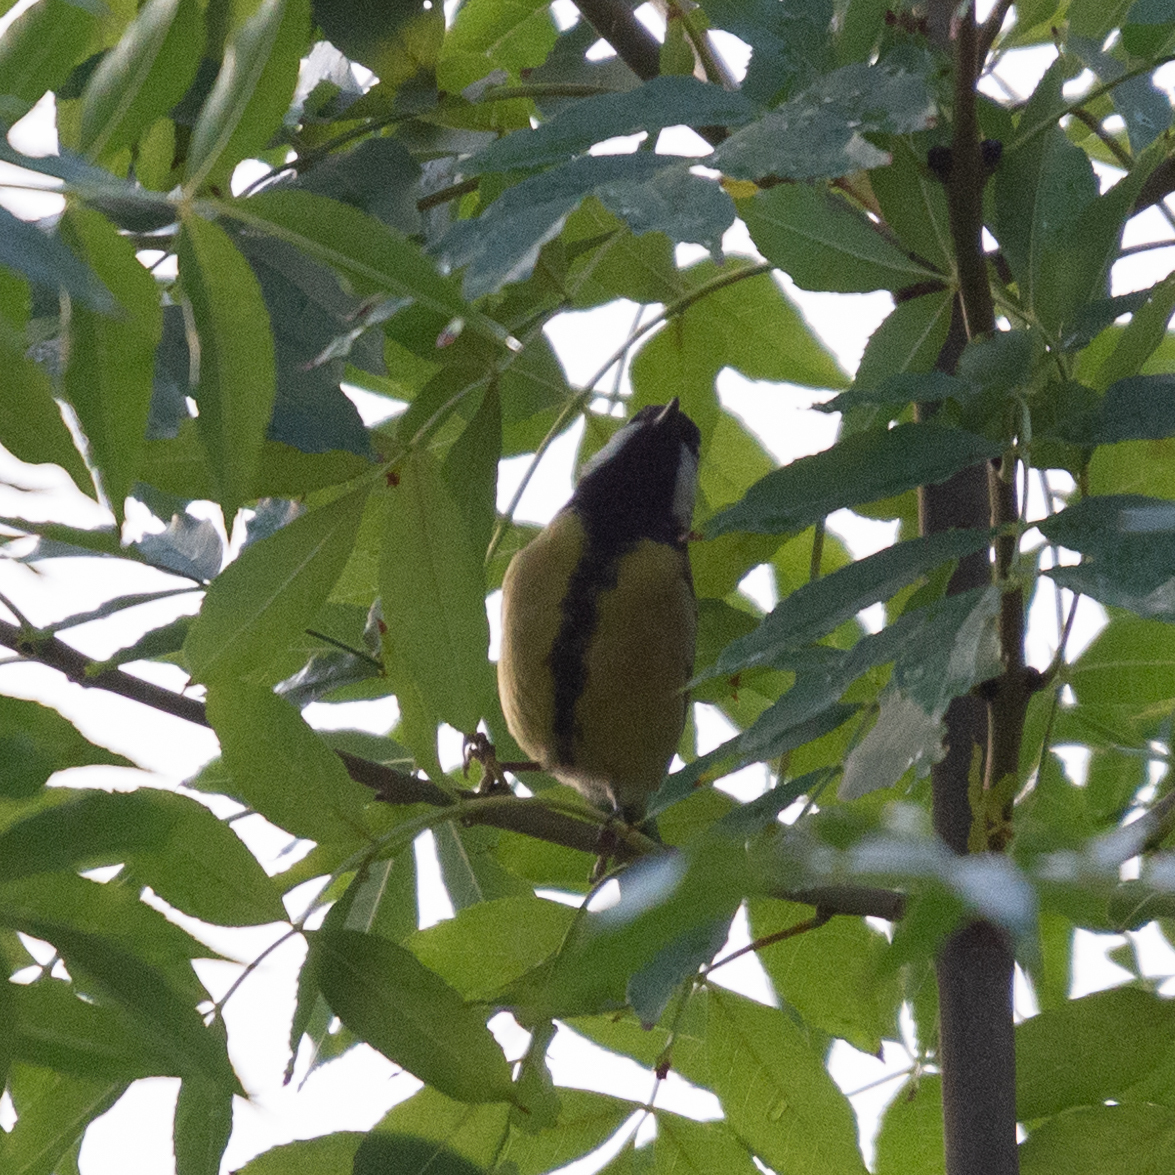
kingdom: Animalia
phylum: Chordata
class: Aves
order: Passeriformes
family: Paridae
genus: Parus
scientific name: Parus major
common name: Great tit
